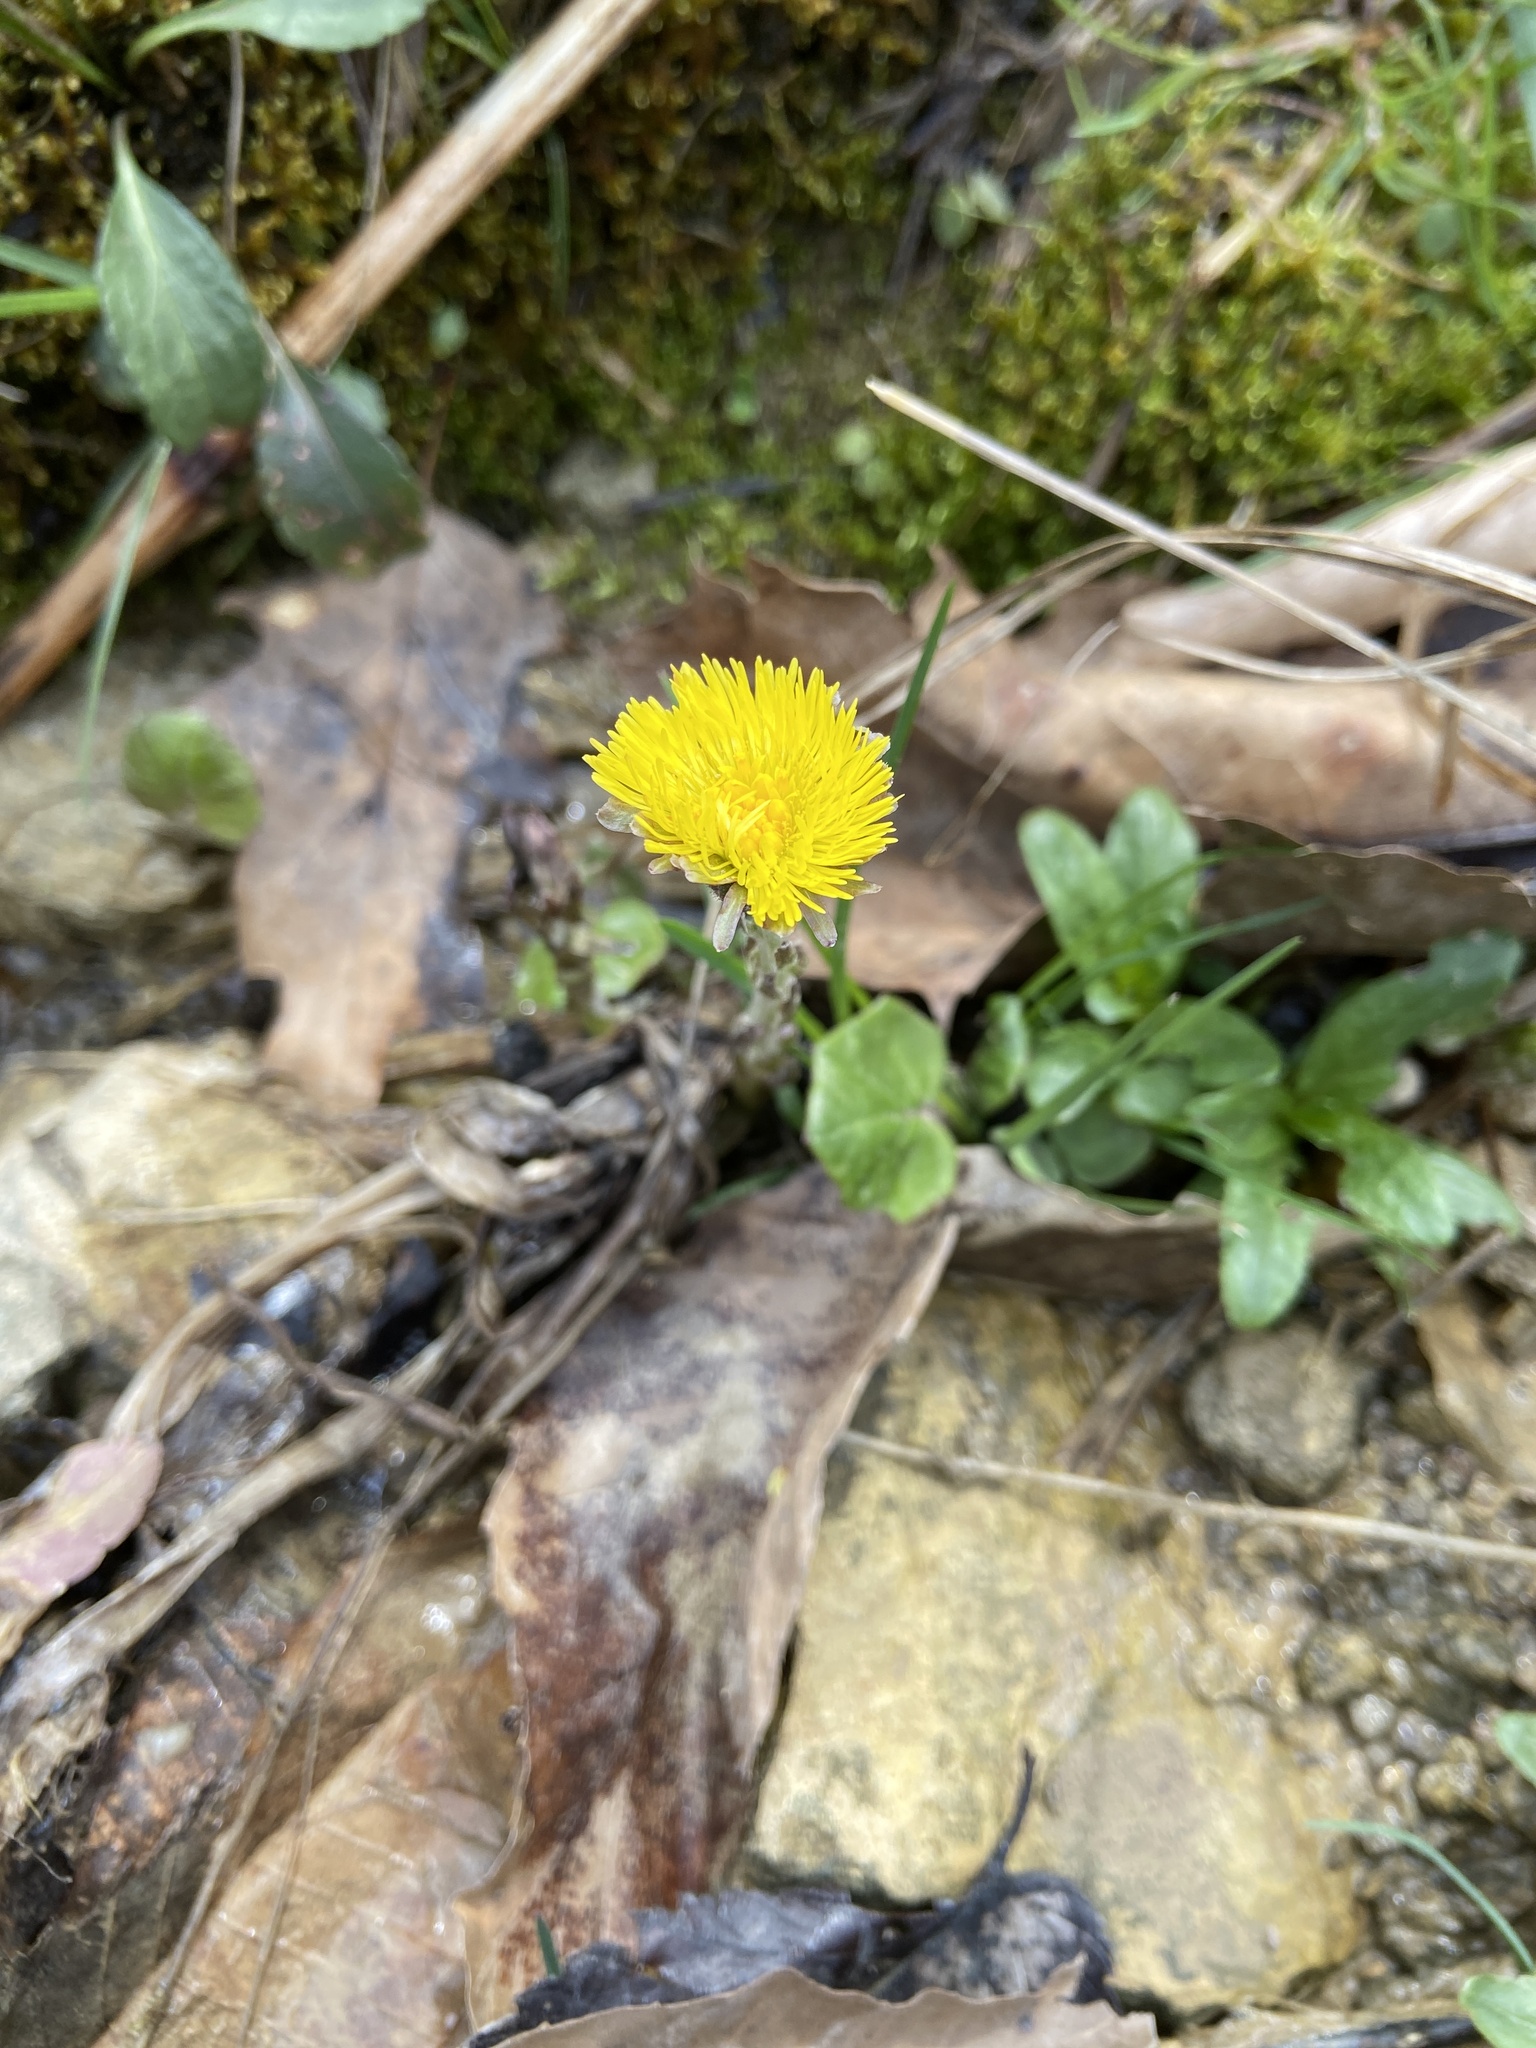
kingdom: Plantae
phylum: Tracheophyta
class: Magnoliopsida
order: Asterales
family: Asteraceae
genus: Tussilago
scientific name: Tussilago farfara
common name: Coltsfoot
